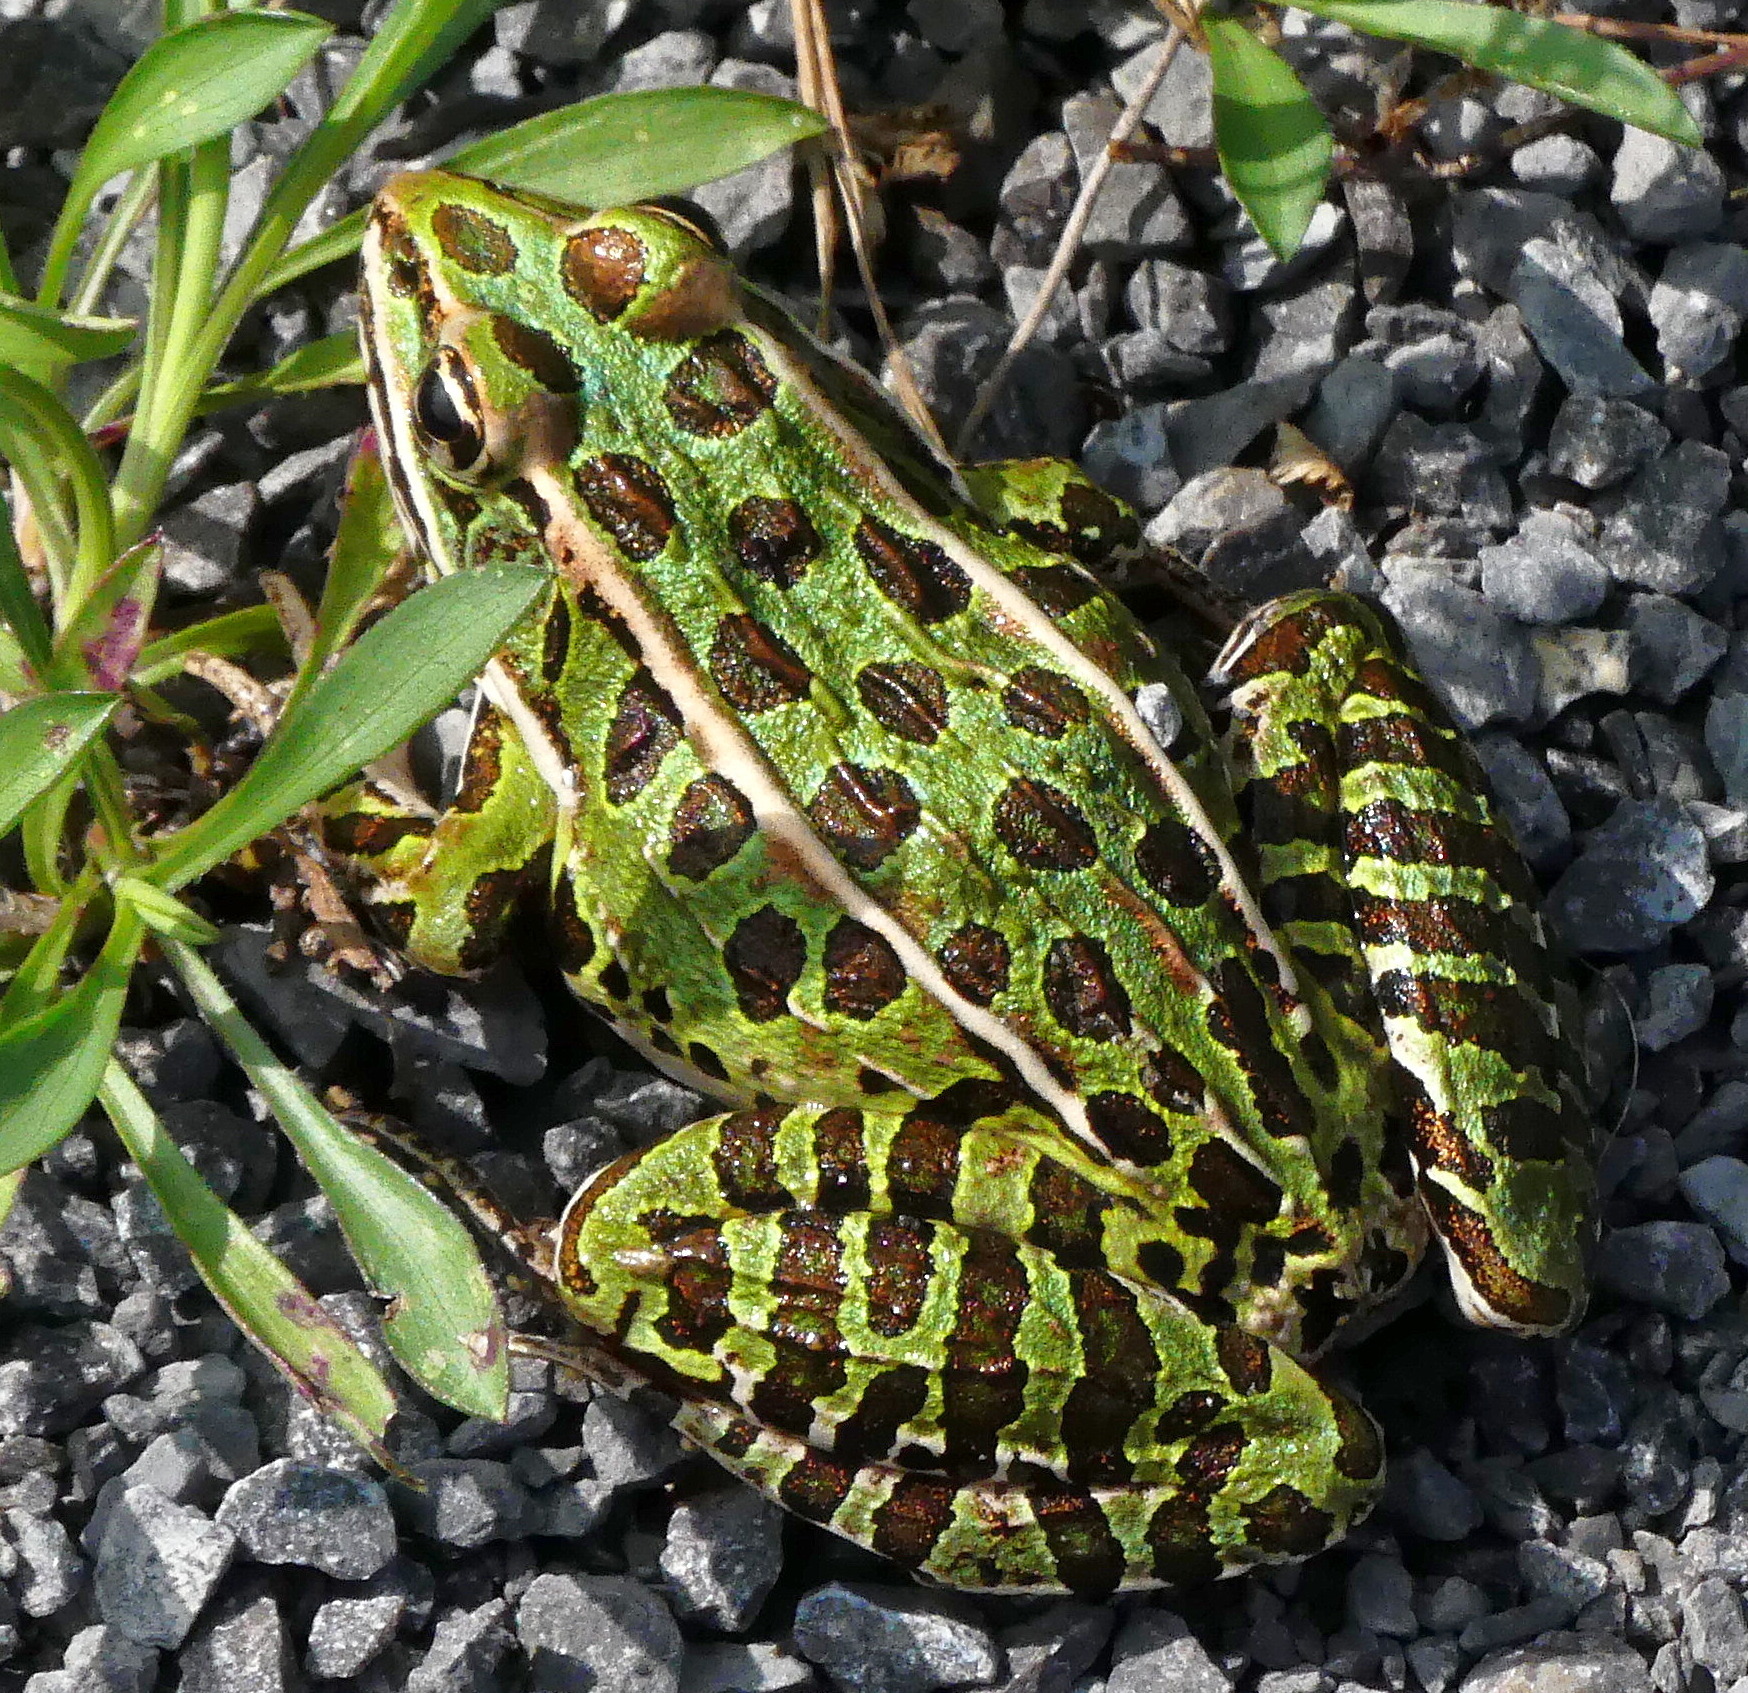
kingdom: Animalia
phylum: Chordata
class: Amphibia
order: Anura
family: Ranidae
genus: Lithobates
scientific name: Lithobates pipiens
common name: Northern leopard frog
